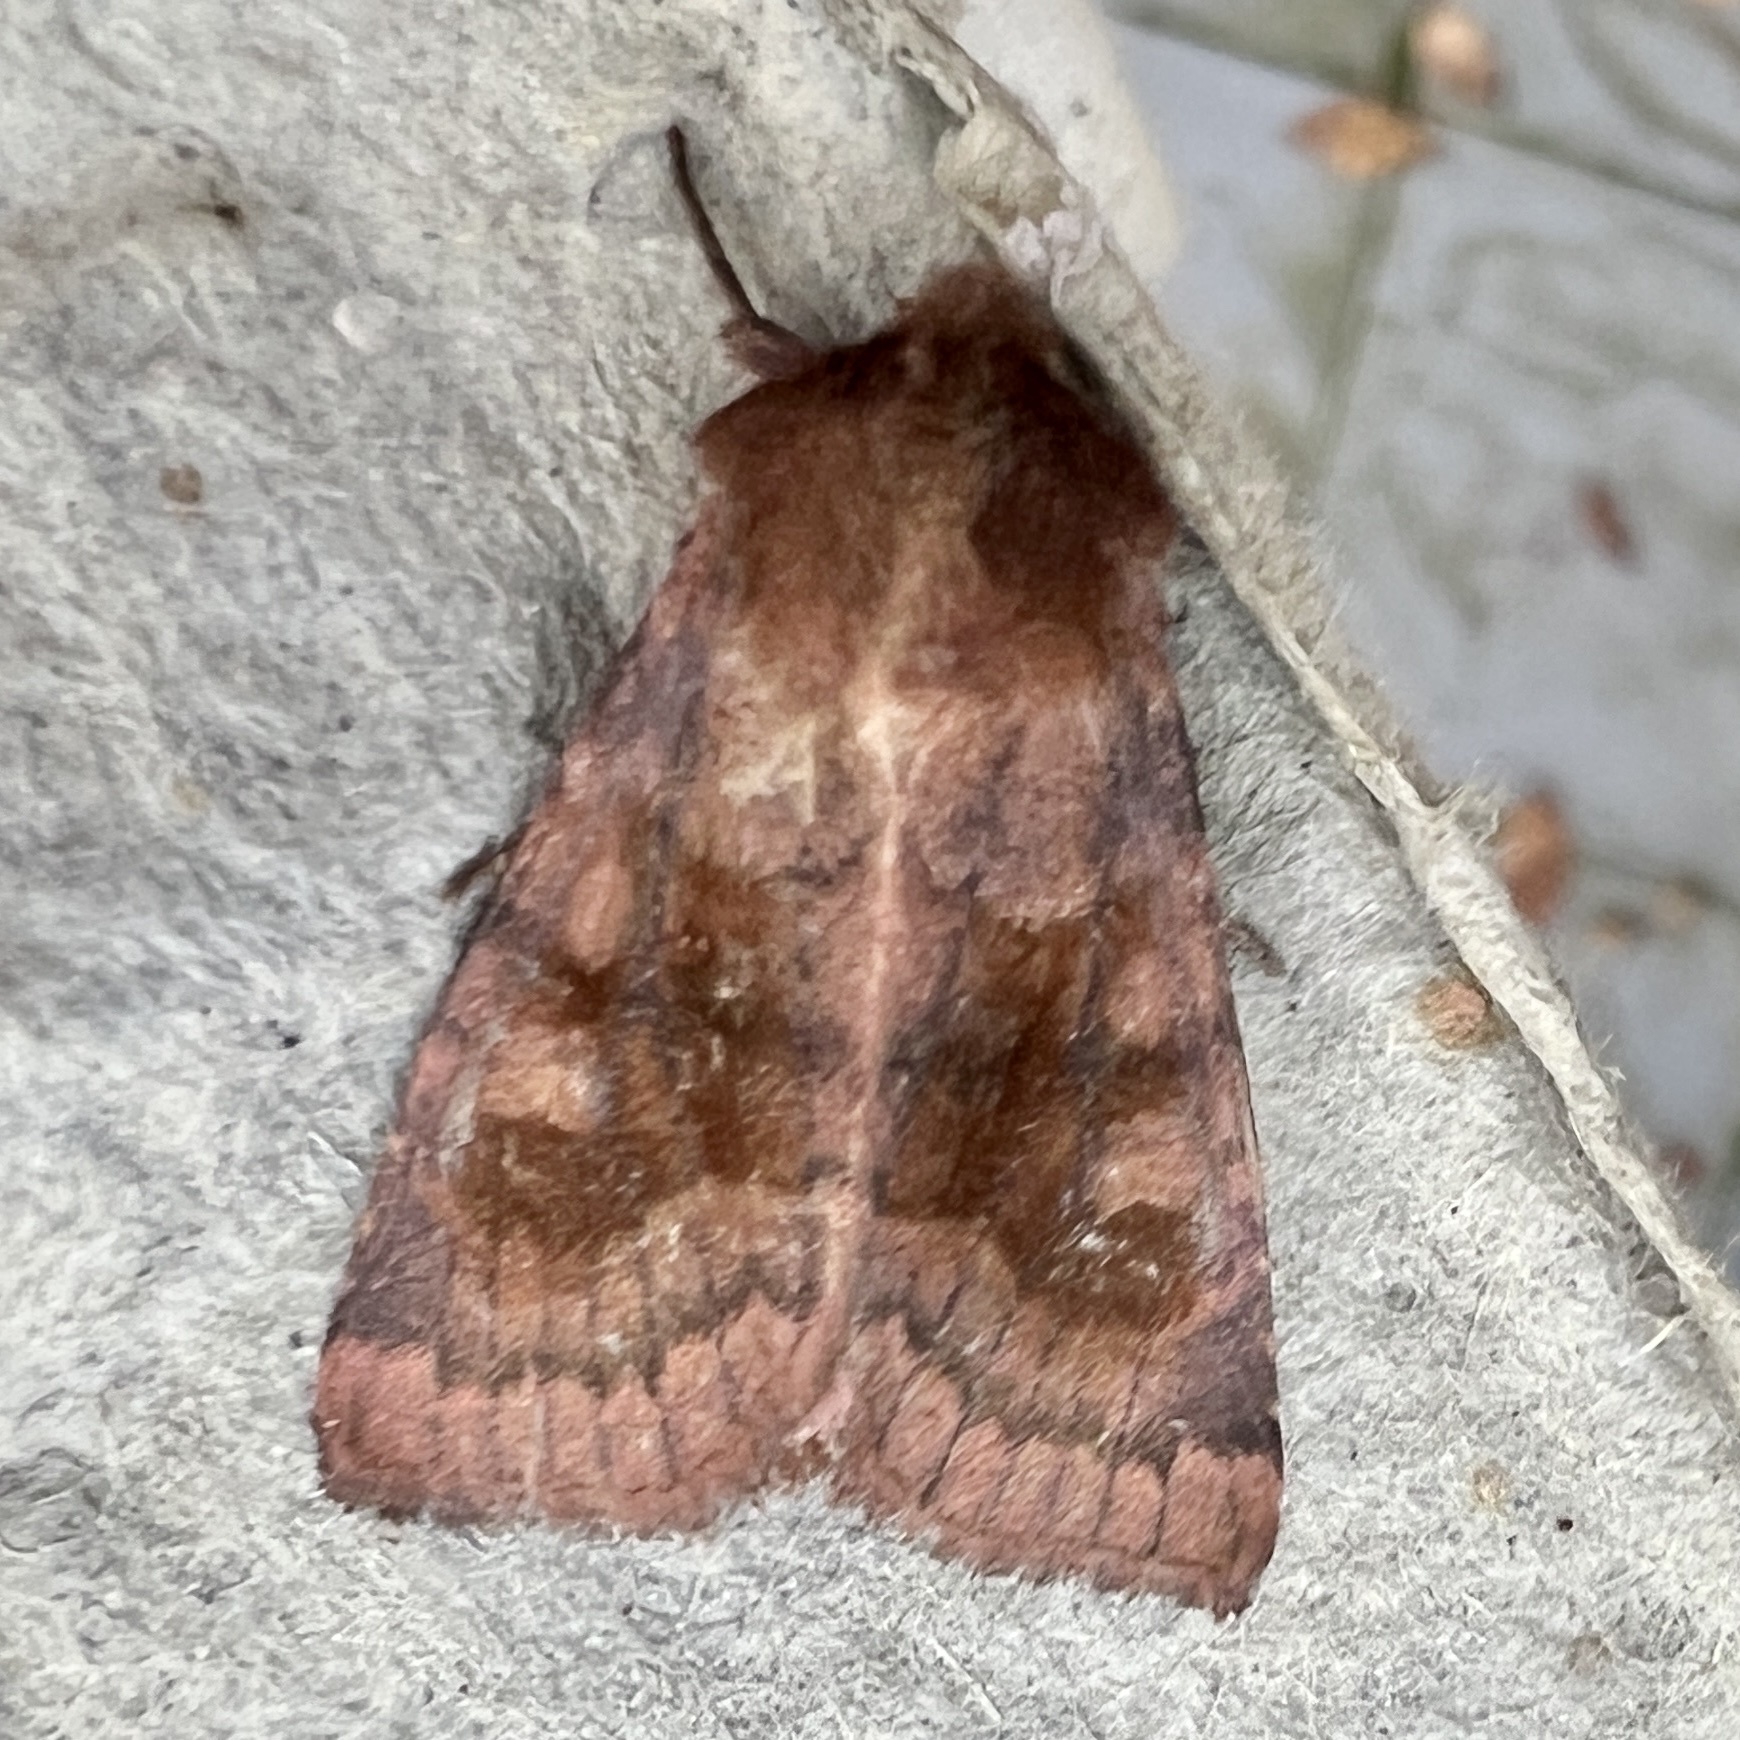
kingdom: Animalia
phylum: Arthropoda
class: Insecta
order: Lepidoptera
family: Noctuidae
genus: Nephelodes
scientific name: Nephelodes minians
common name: Bronzed cutworm
